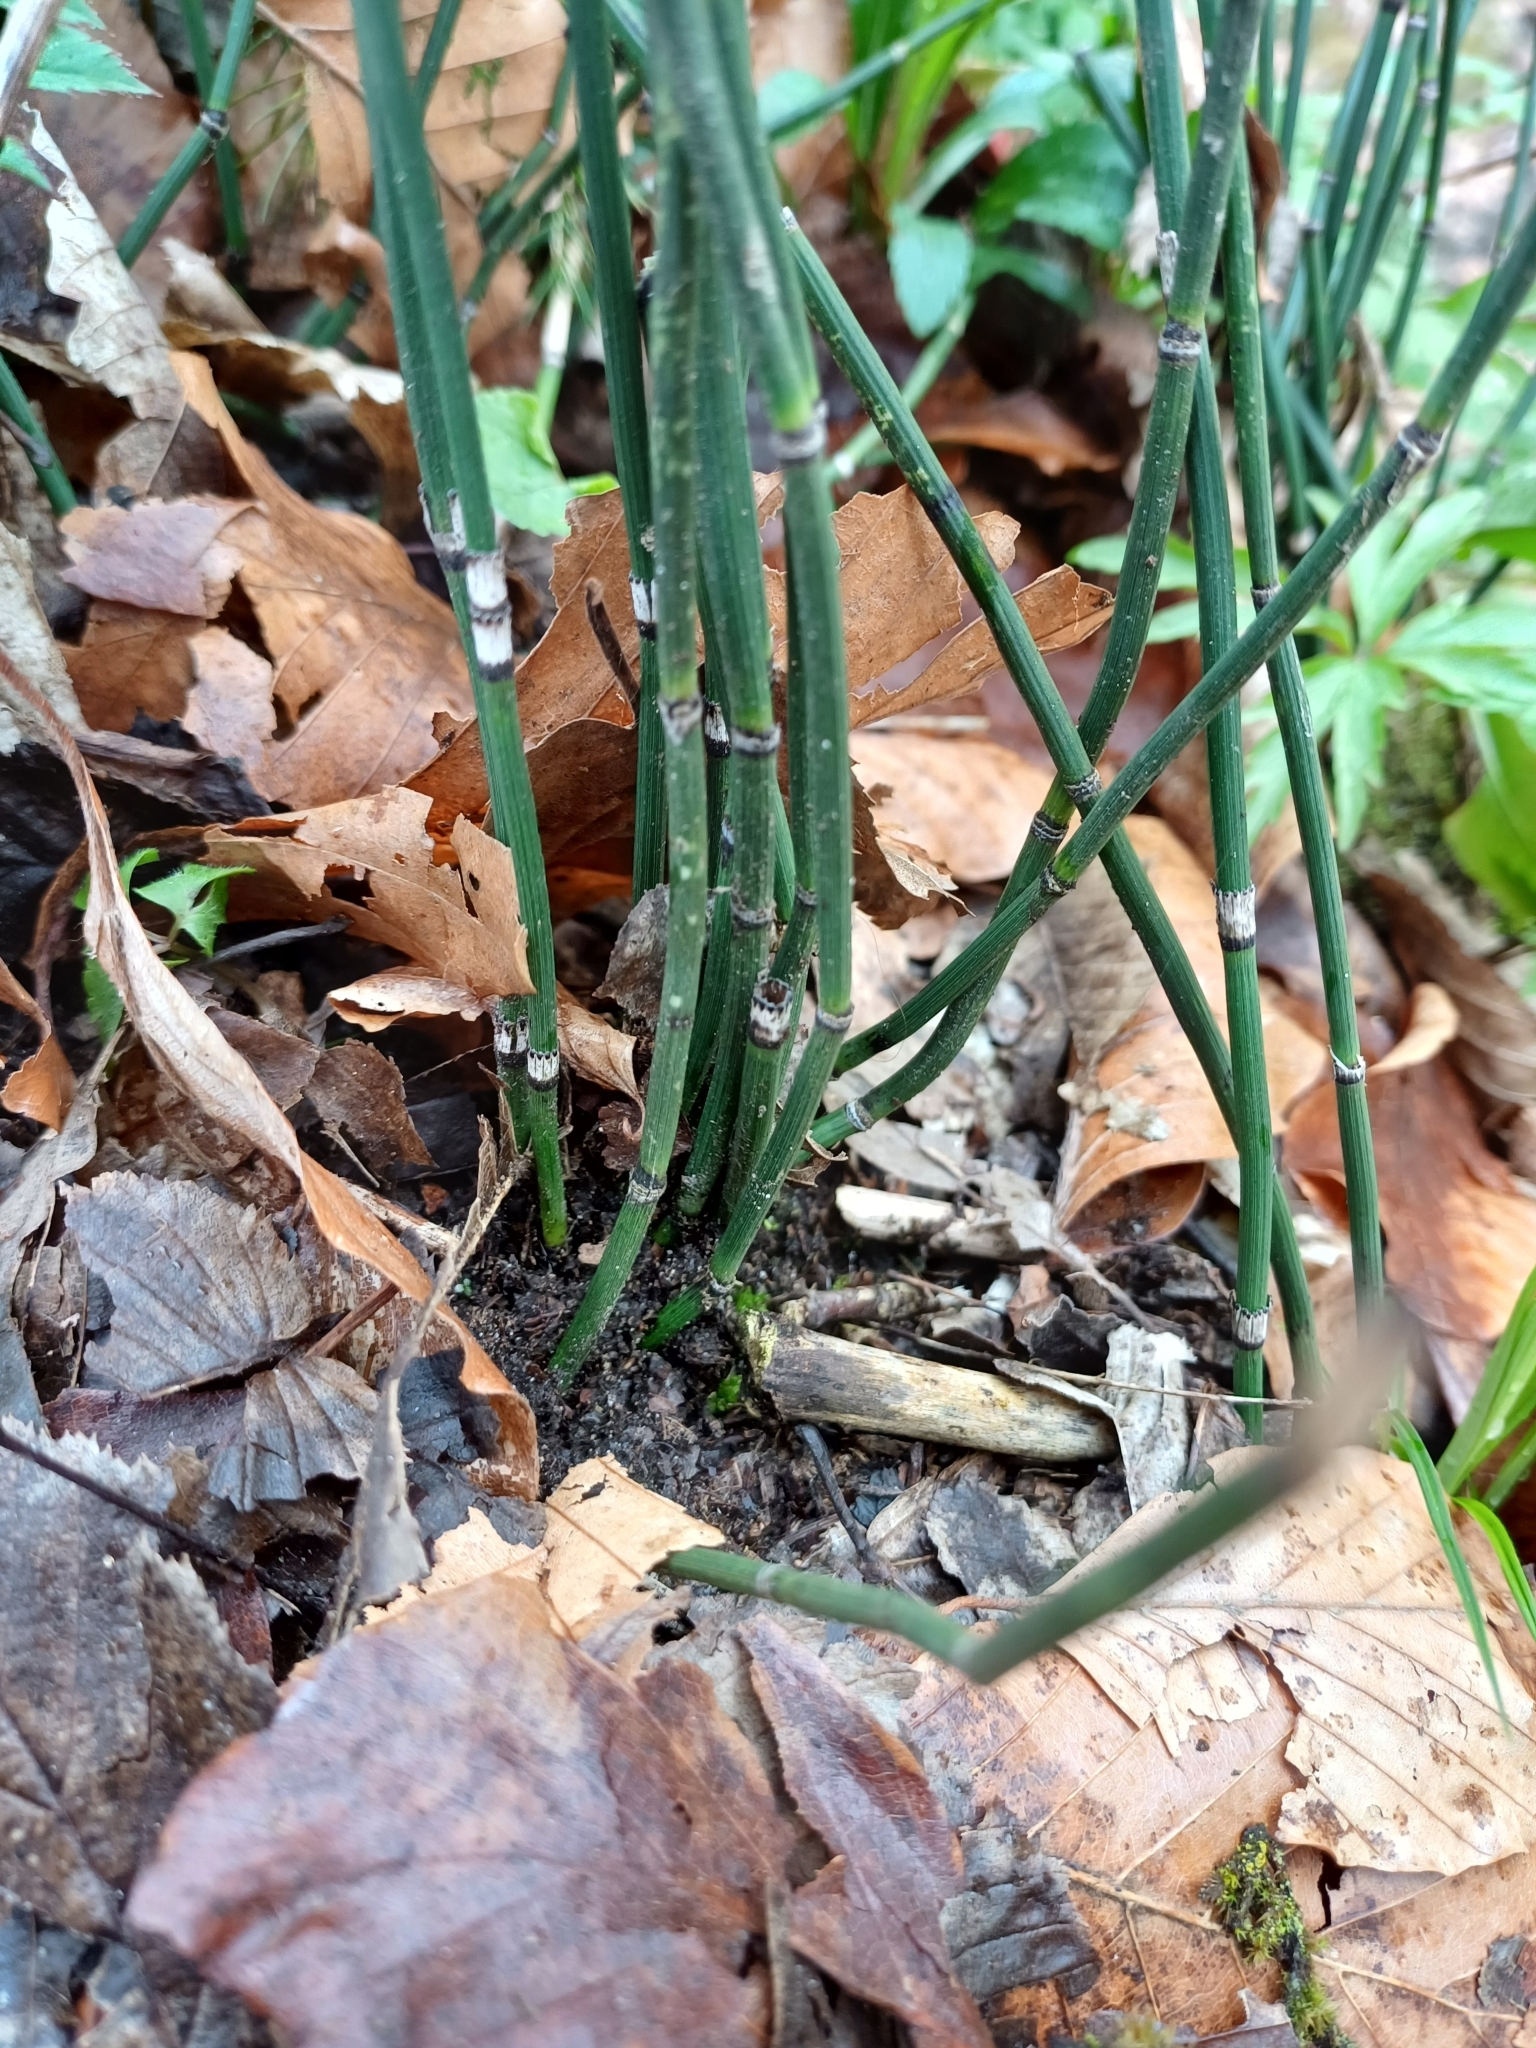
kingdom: Plantae
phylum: Tracheophyta
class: Polypodiopsida
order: Equisetales
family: Equisetaceae
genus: Equisetum
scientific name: Equisetum hyemale
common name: Rough horsetail
